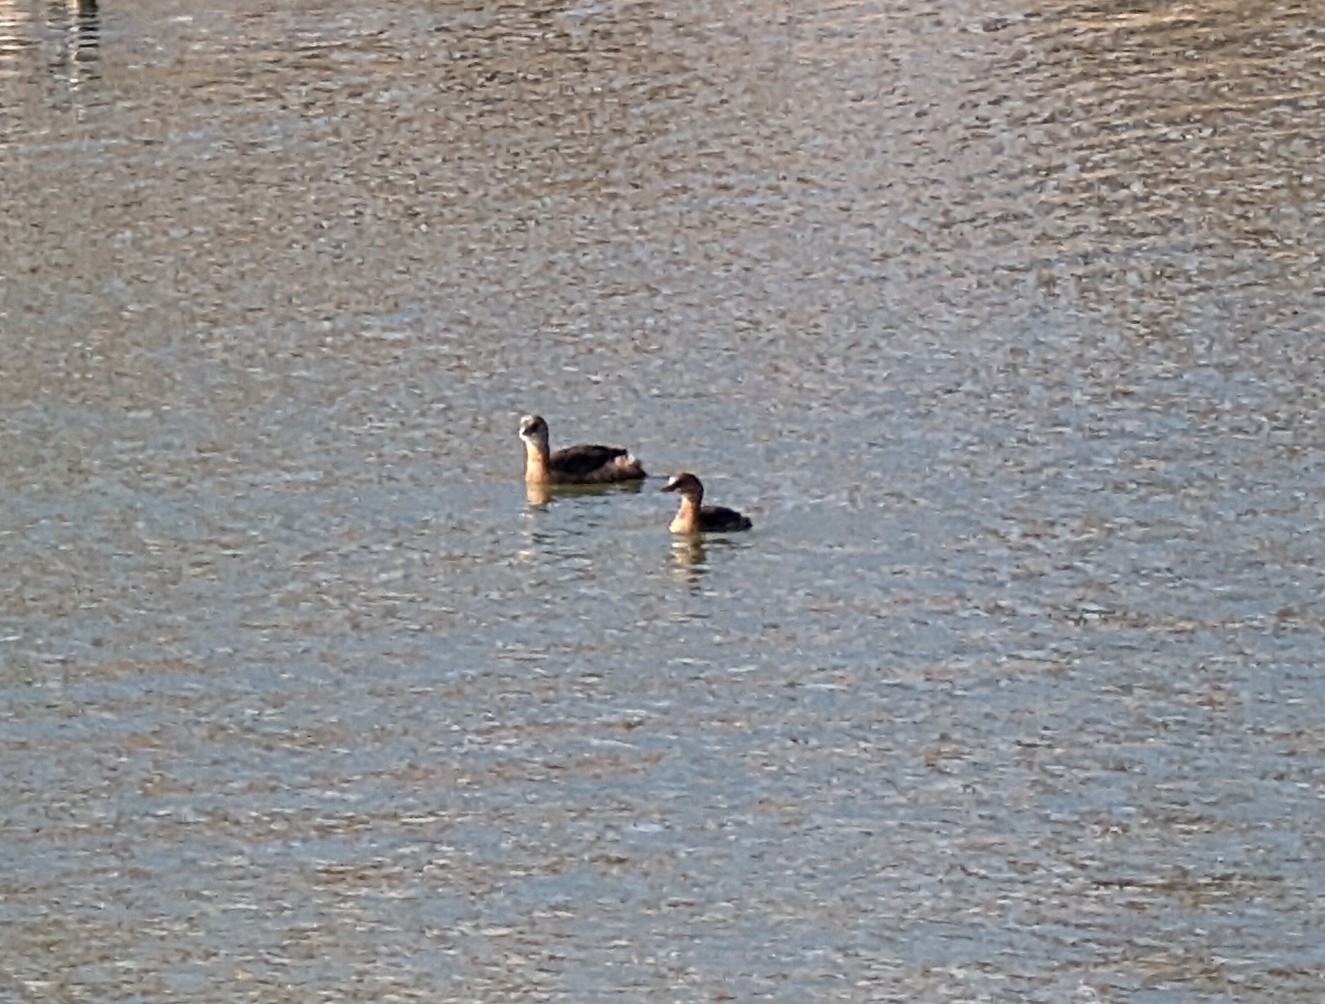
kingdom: Animalia
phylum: Chordata
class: Aves
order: Podicipediformes
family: Podicipedidae
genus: Podilymbus
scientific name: Podilymbus podiceps
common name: Pied-billed grebe
